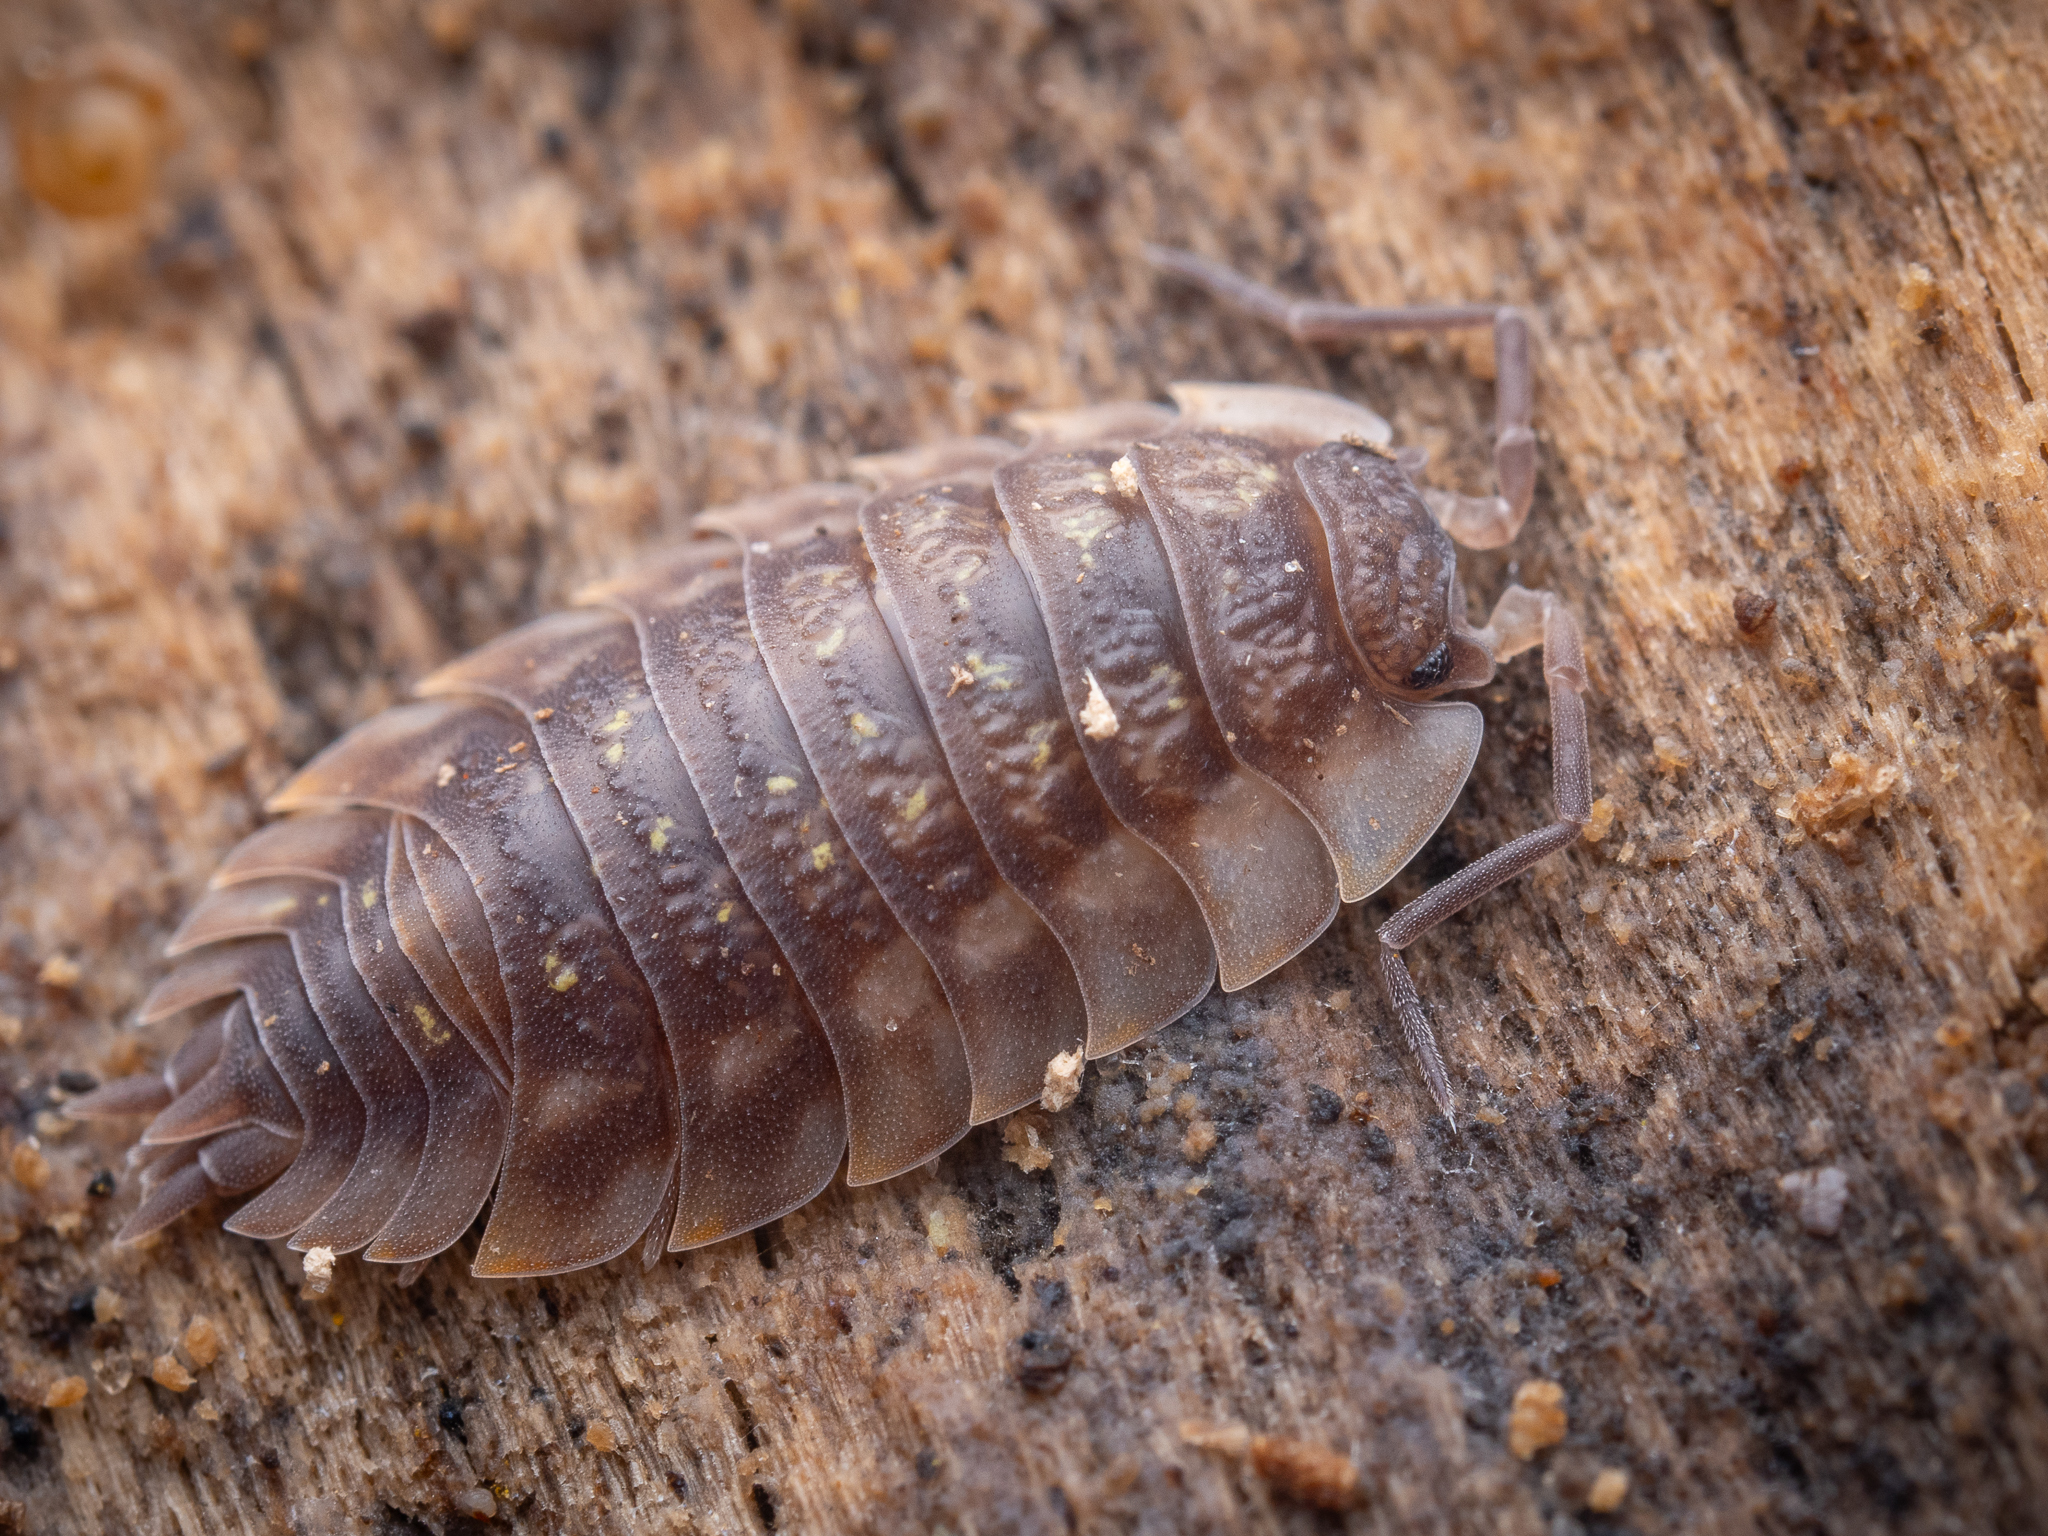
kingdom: Animalia
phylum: Arthropoda
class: Malacostraca
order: Isopoda
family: Oniscidae
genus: Oniscus
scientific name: Oniscus asellus
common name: Common shiny woodlouse
